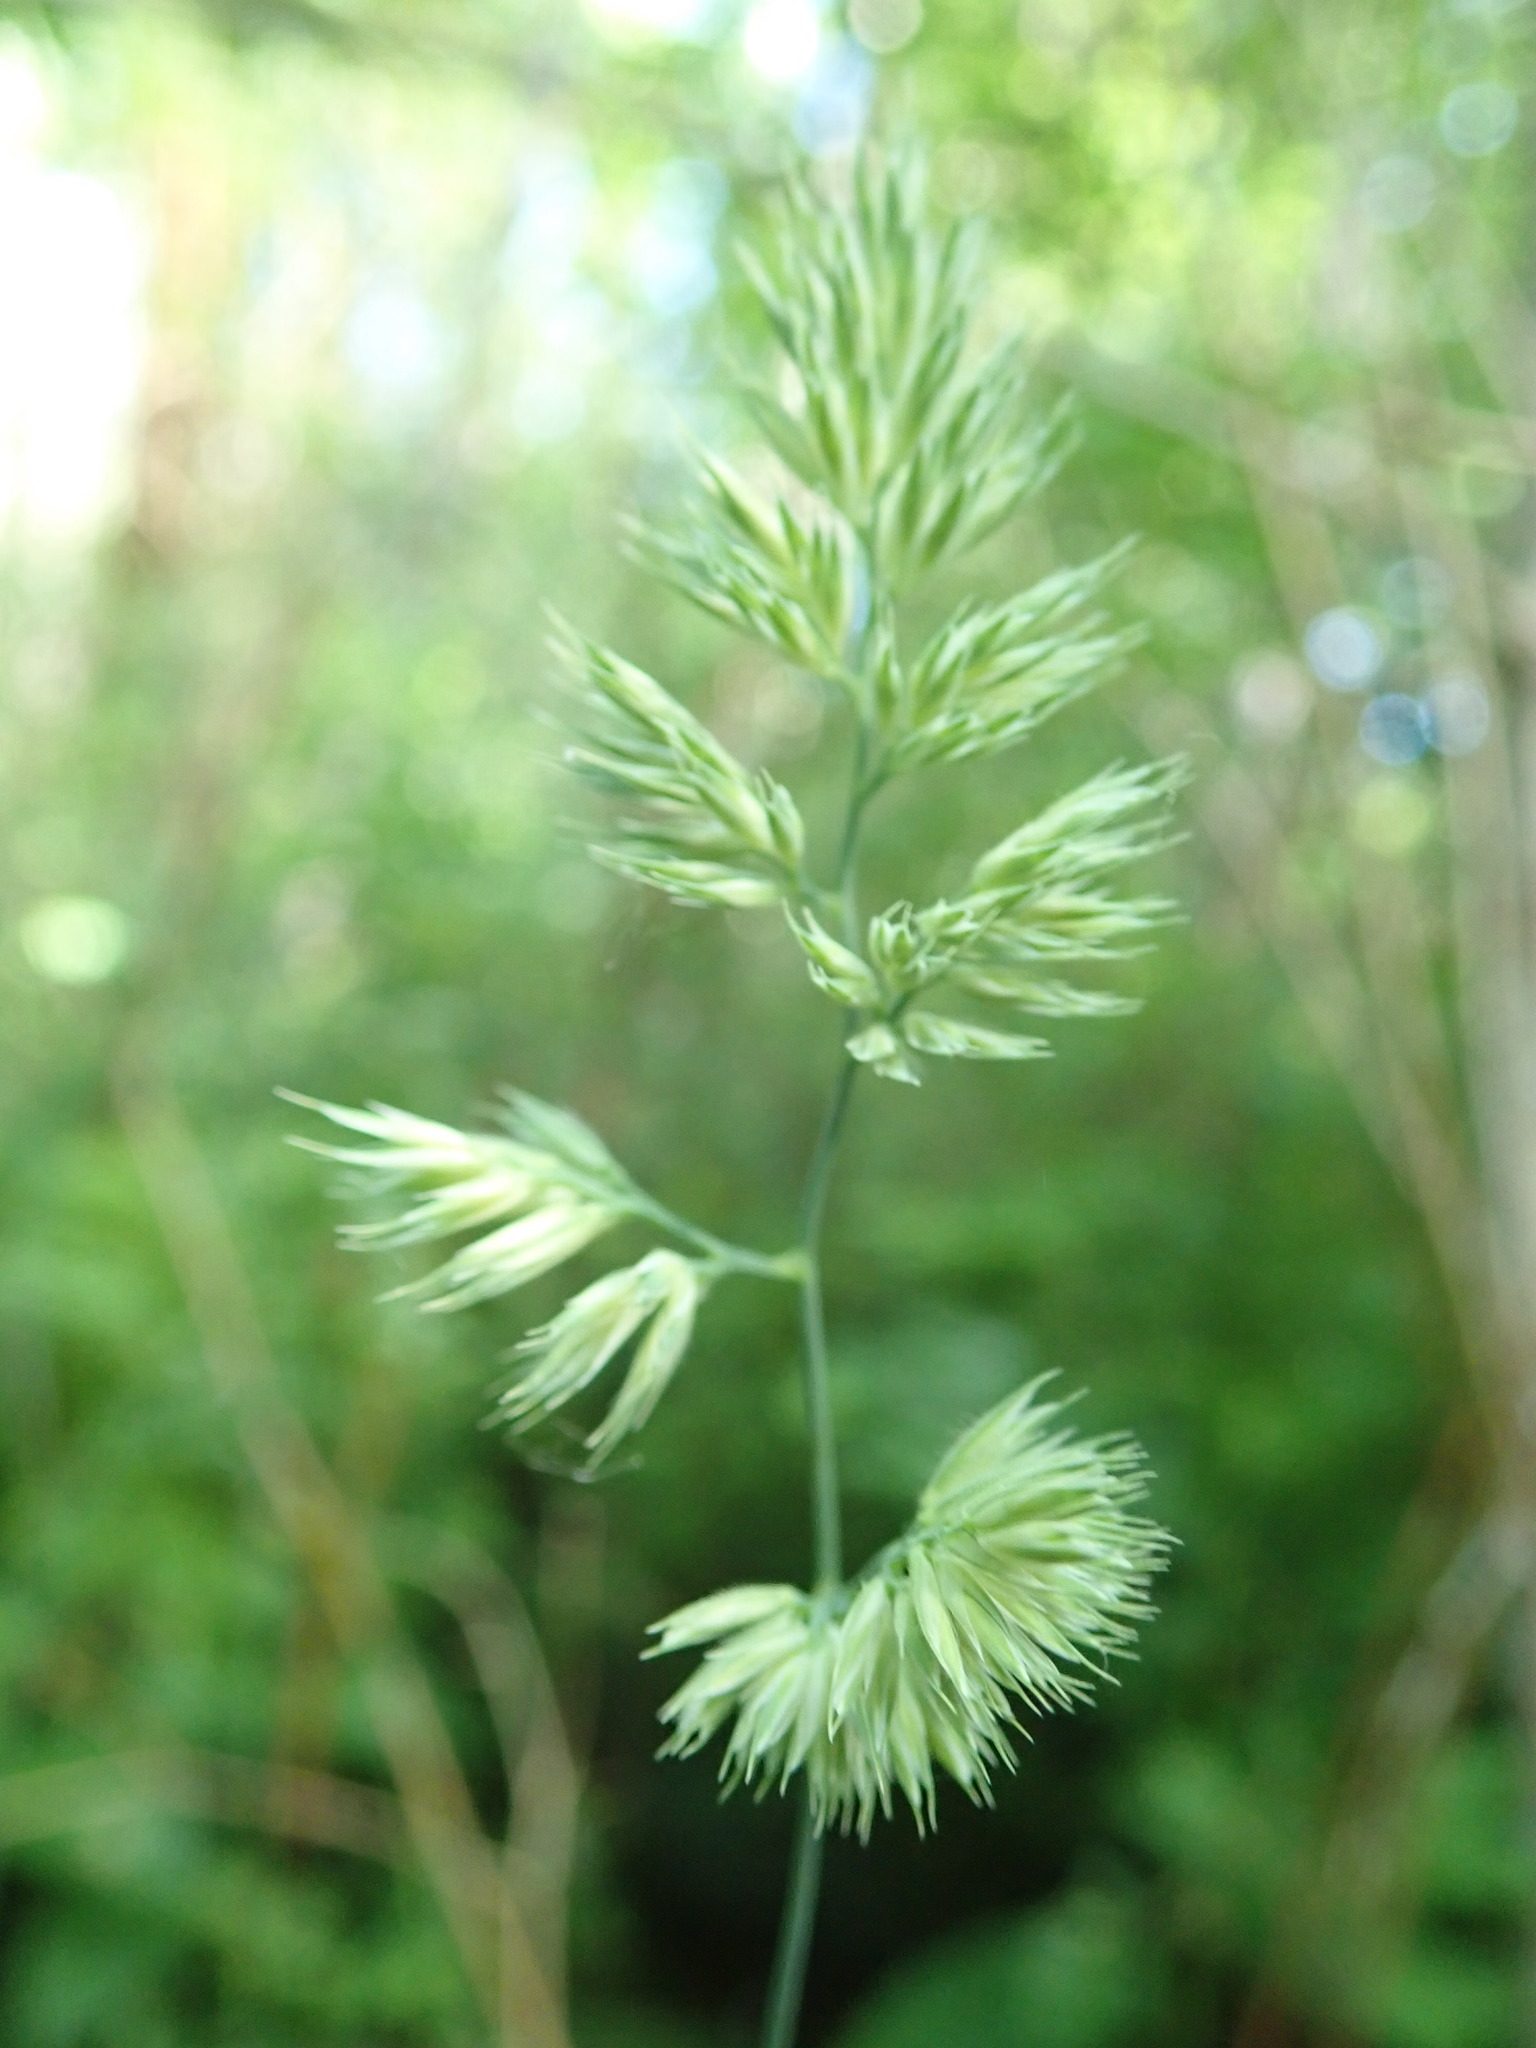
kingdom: Plantae
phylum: Tracheophyta
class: Liliopsida
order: Poales
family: Poaceae
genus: Dactylis
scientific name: Dactylis glomerata
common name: Orchardgrass
